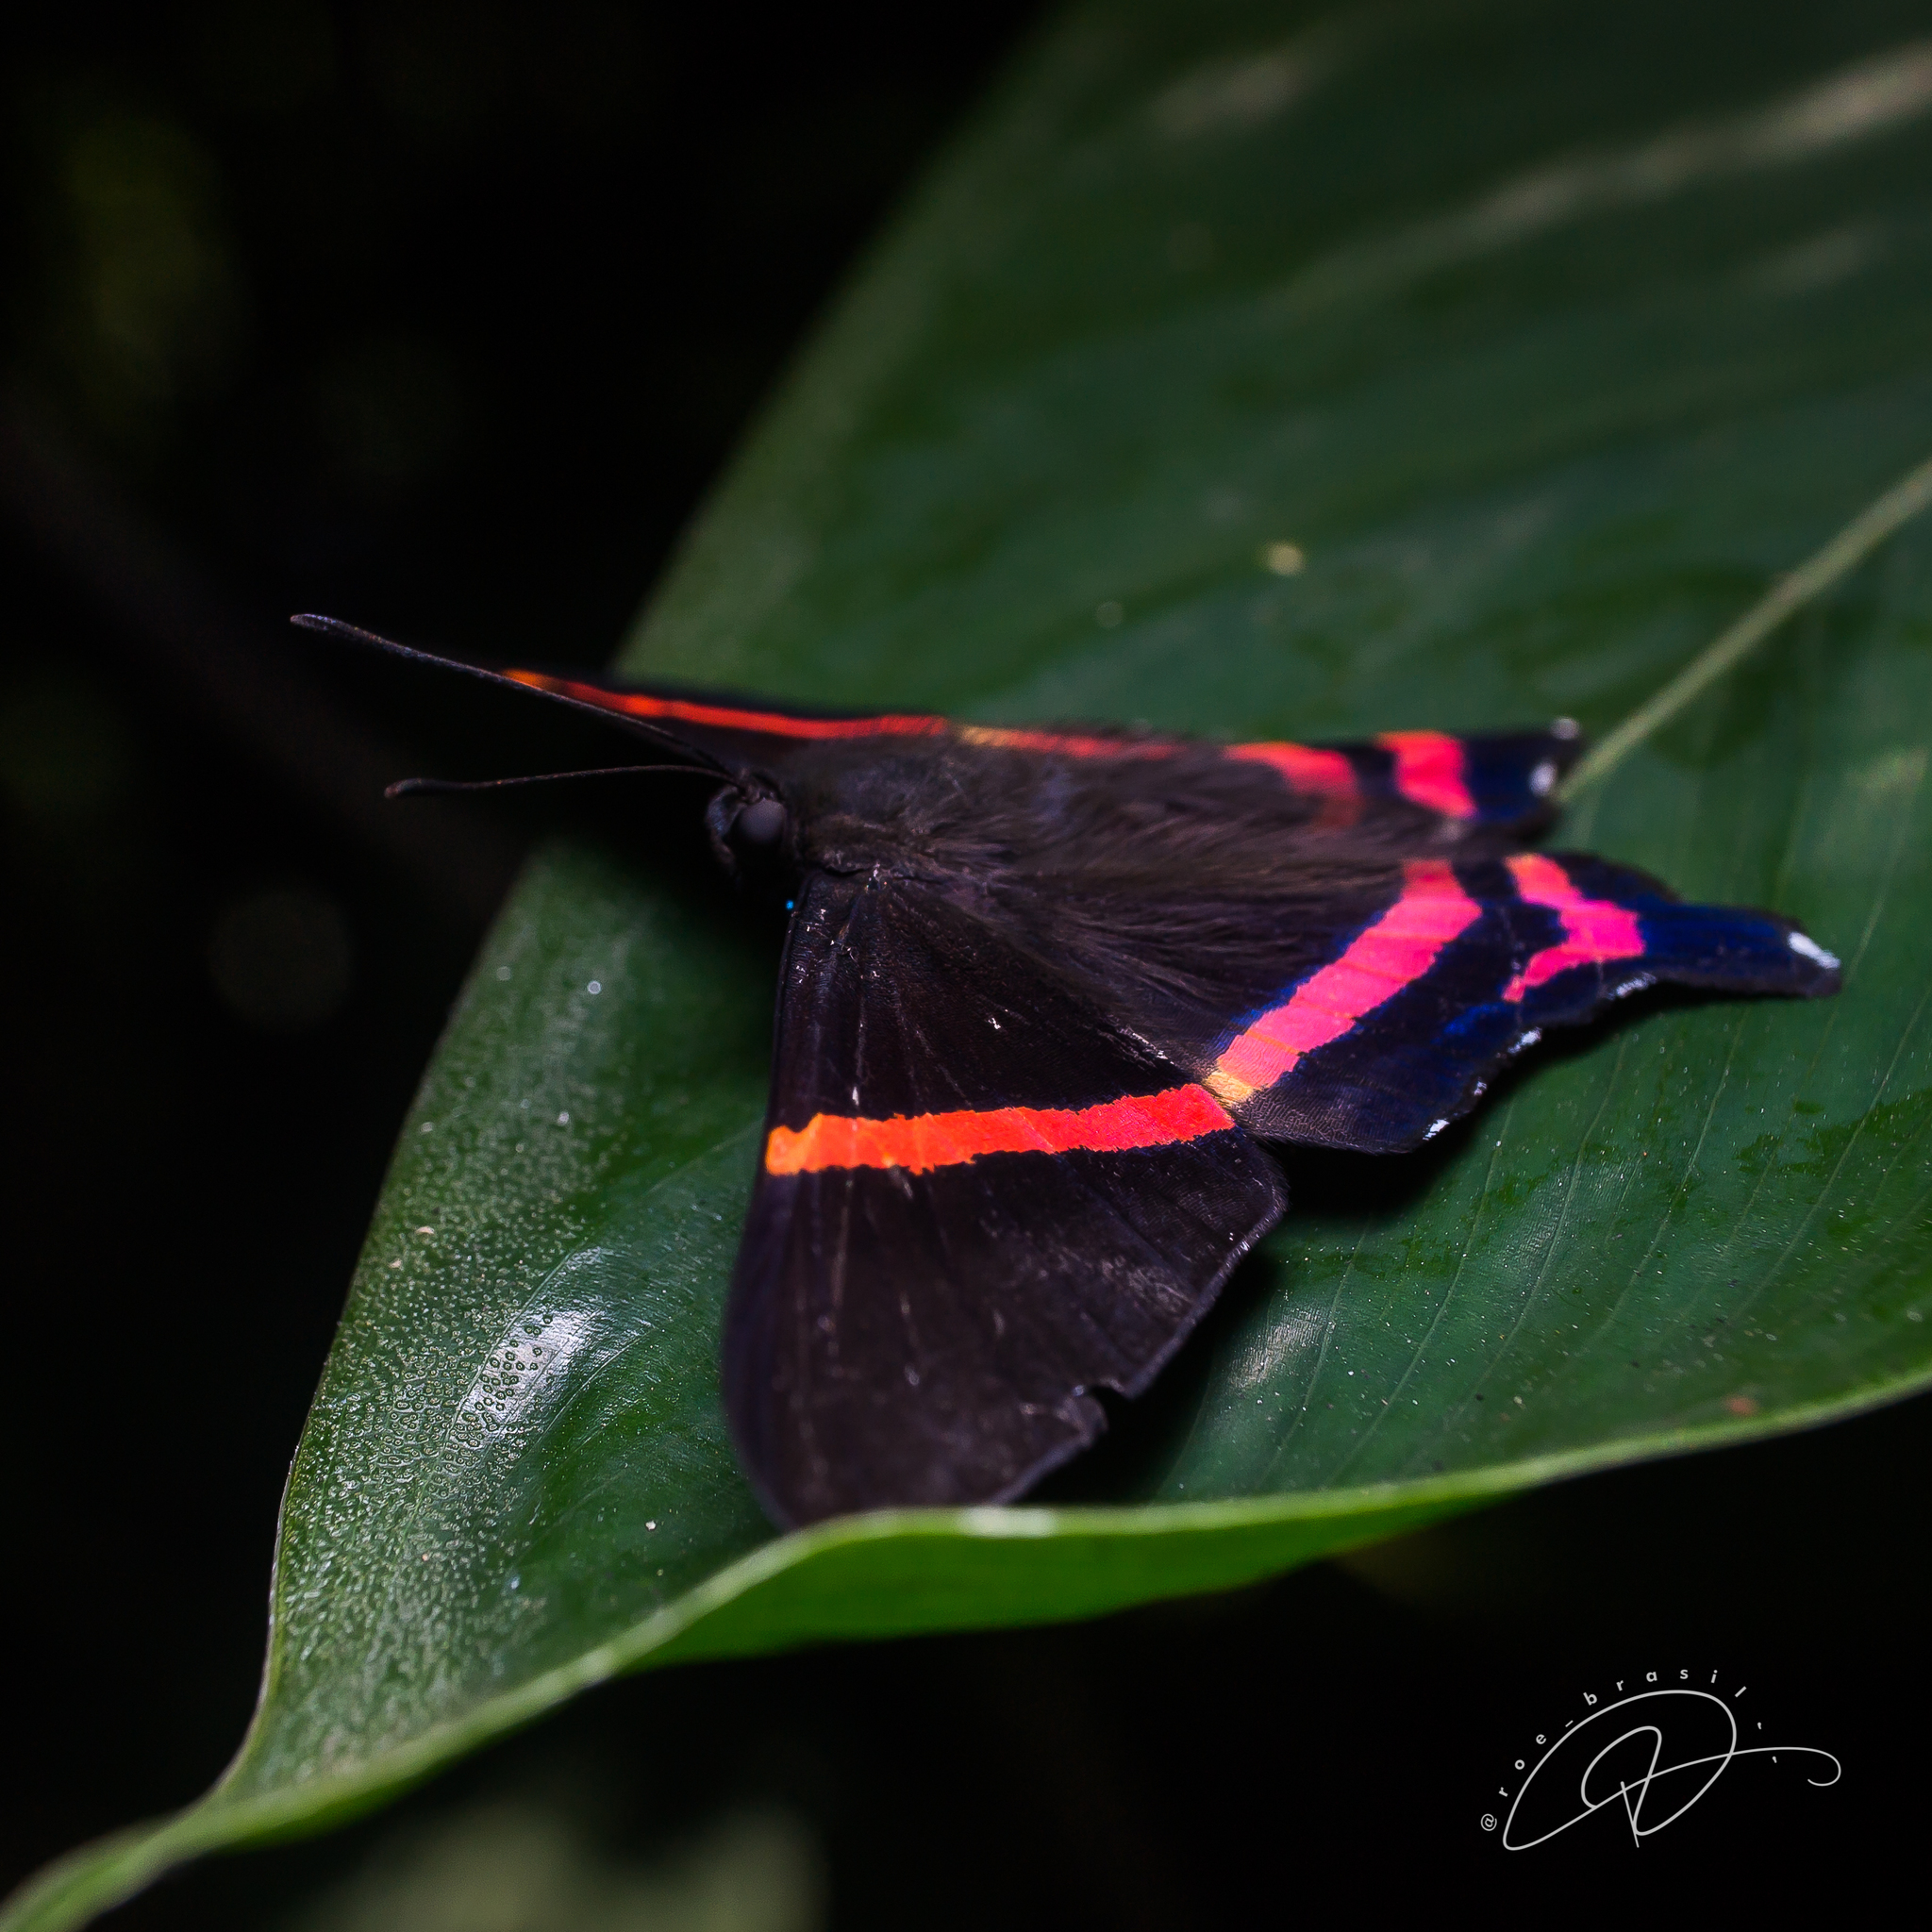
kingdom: Animalia
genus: Ancyluris
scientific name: Ancyluris aulestes
